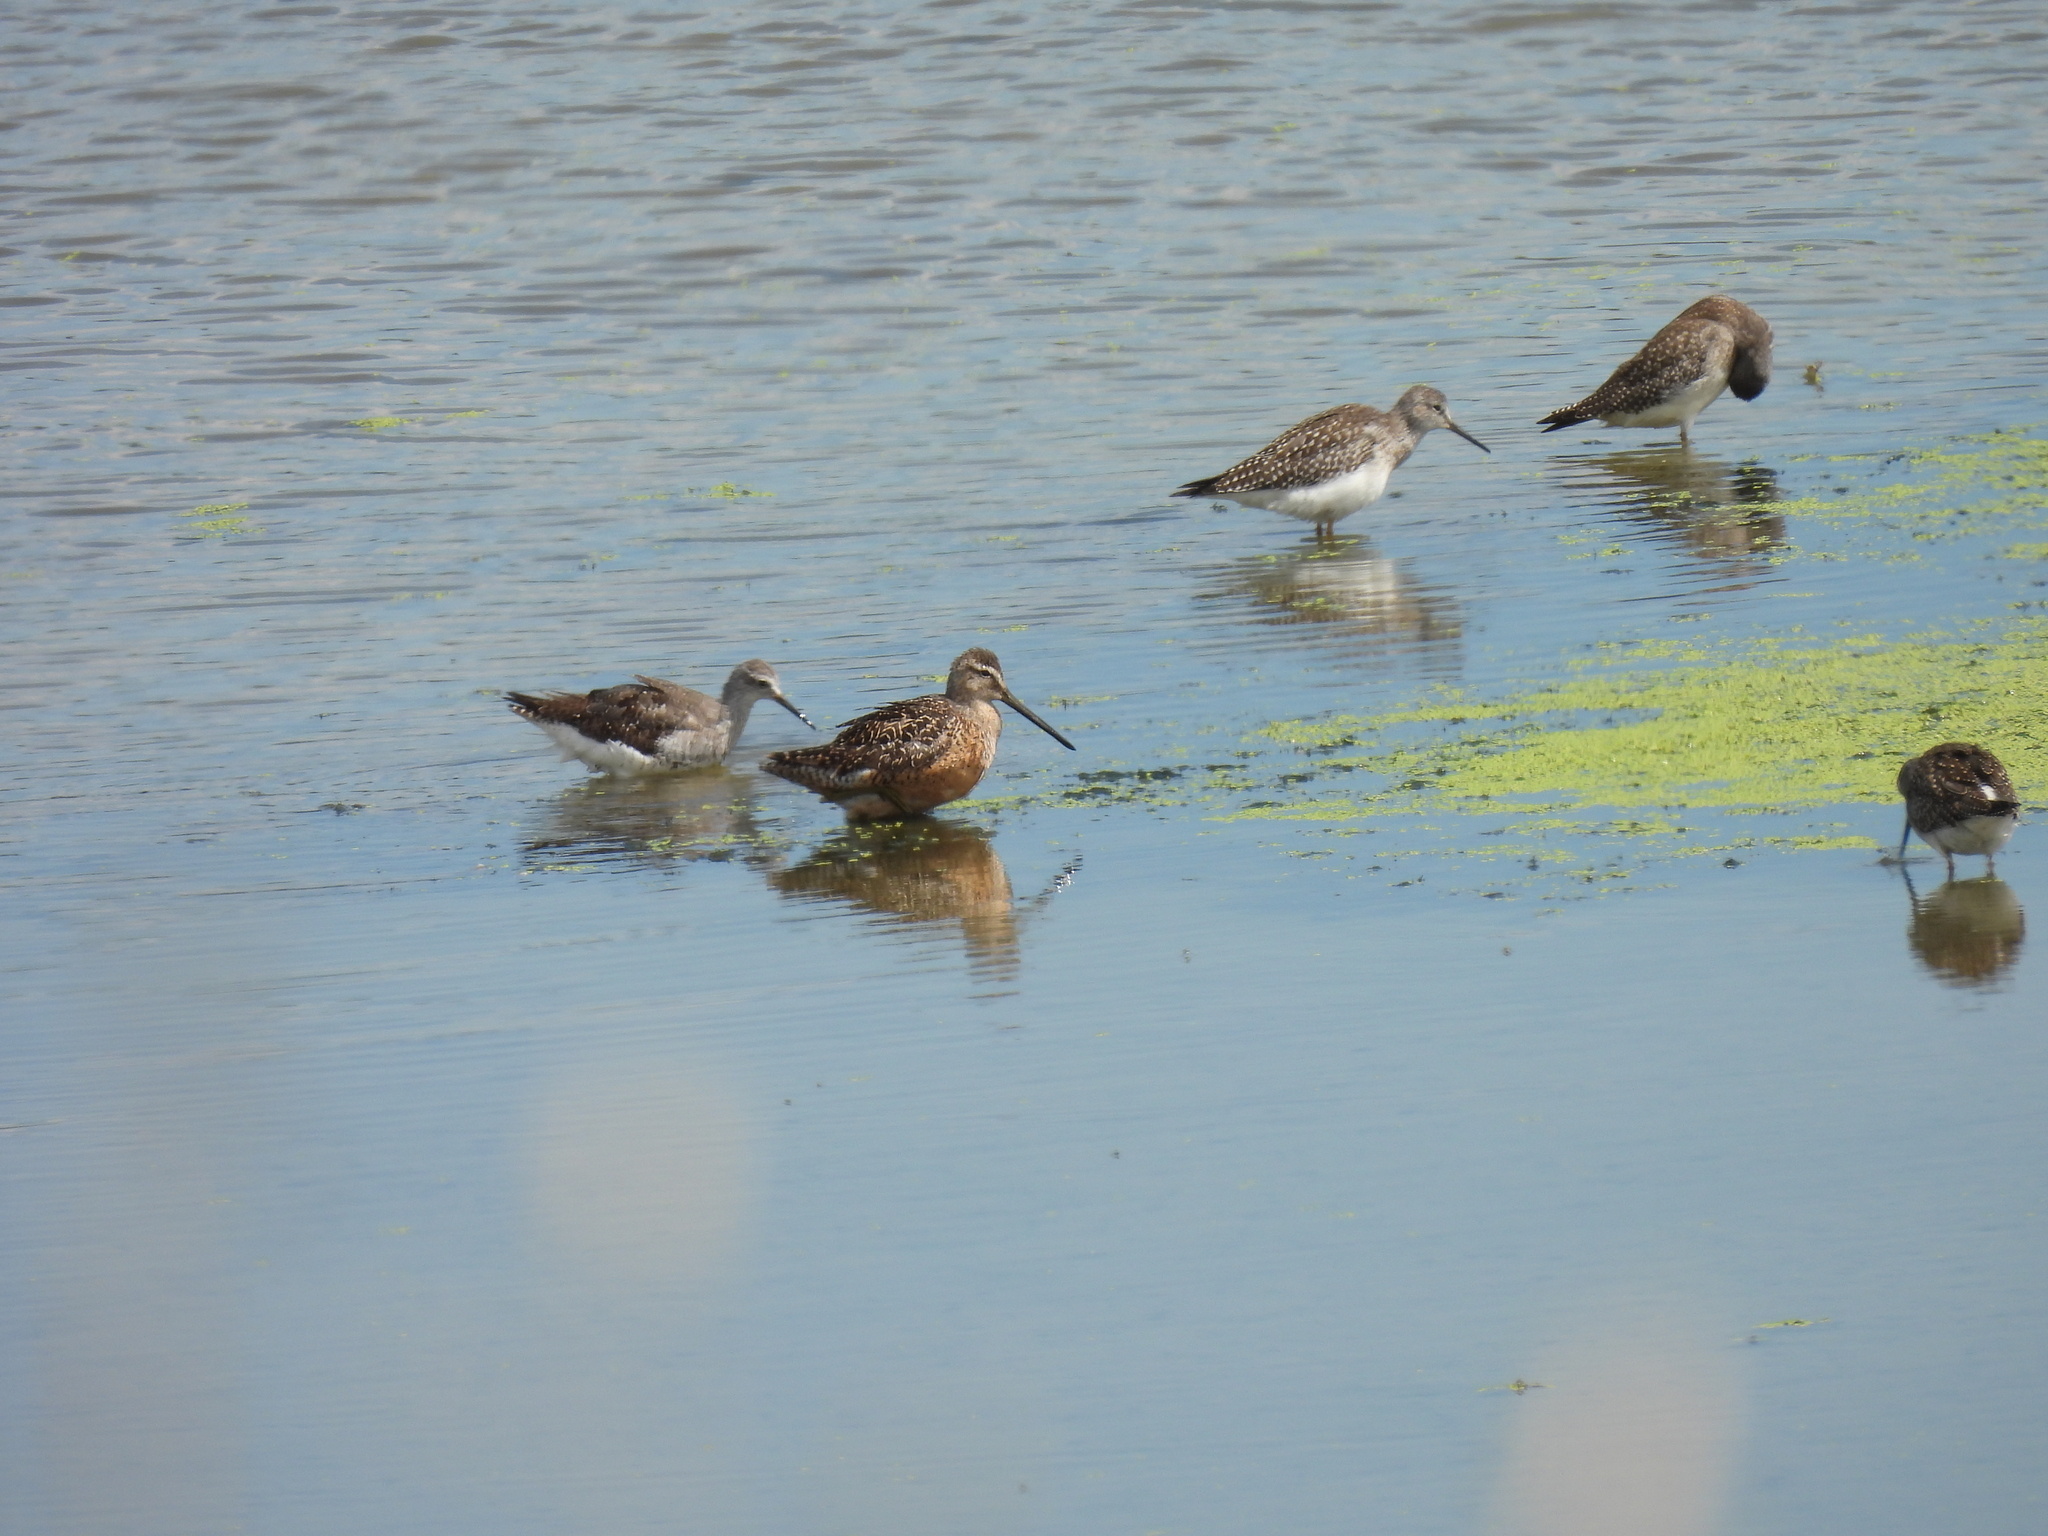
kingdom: Animalia
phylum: Chordata
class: Aves
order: Charadriiformes
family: Scolopacidae
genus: Limnodromus
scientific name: Limnodromus scolopaceus
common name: Long-billed dowitcher
